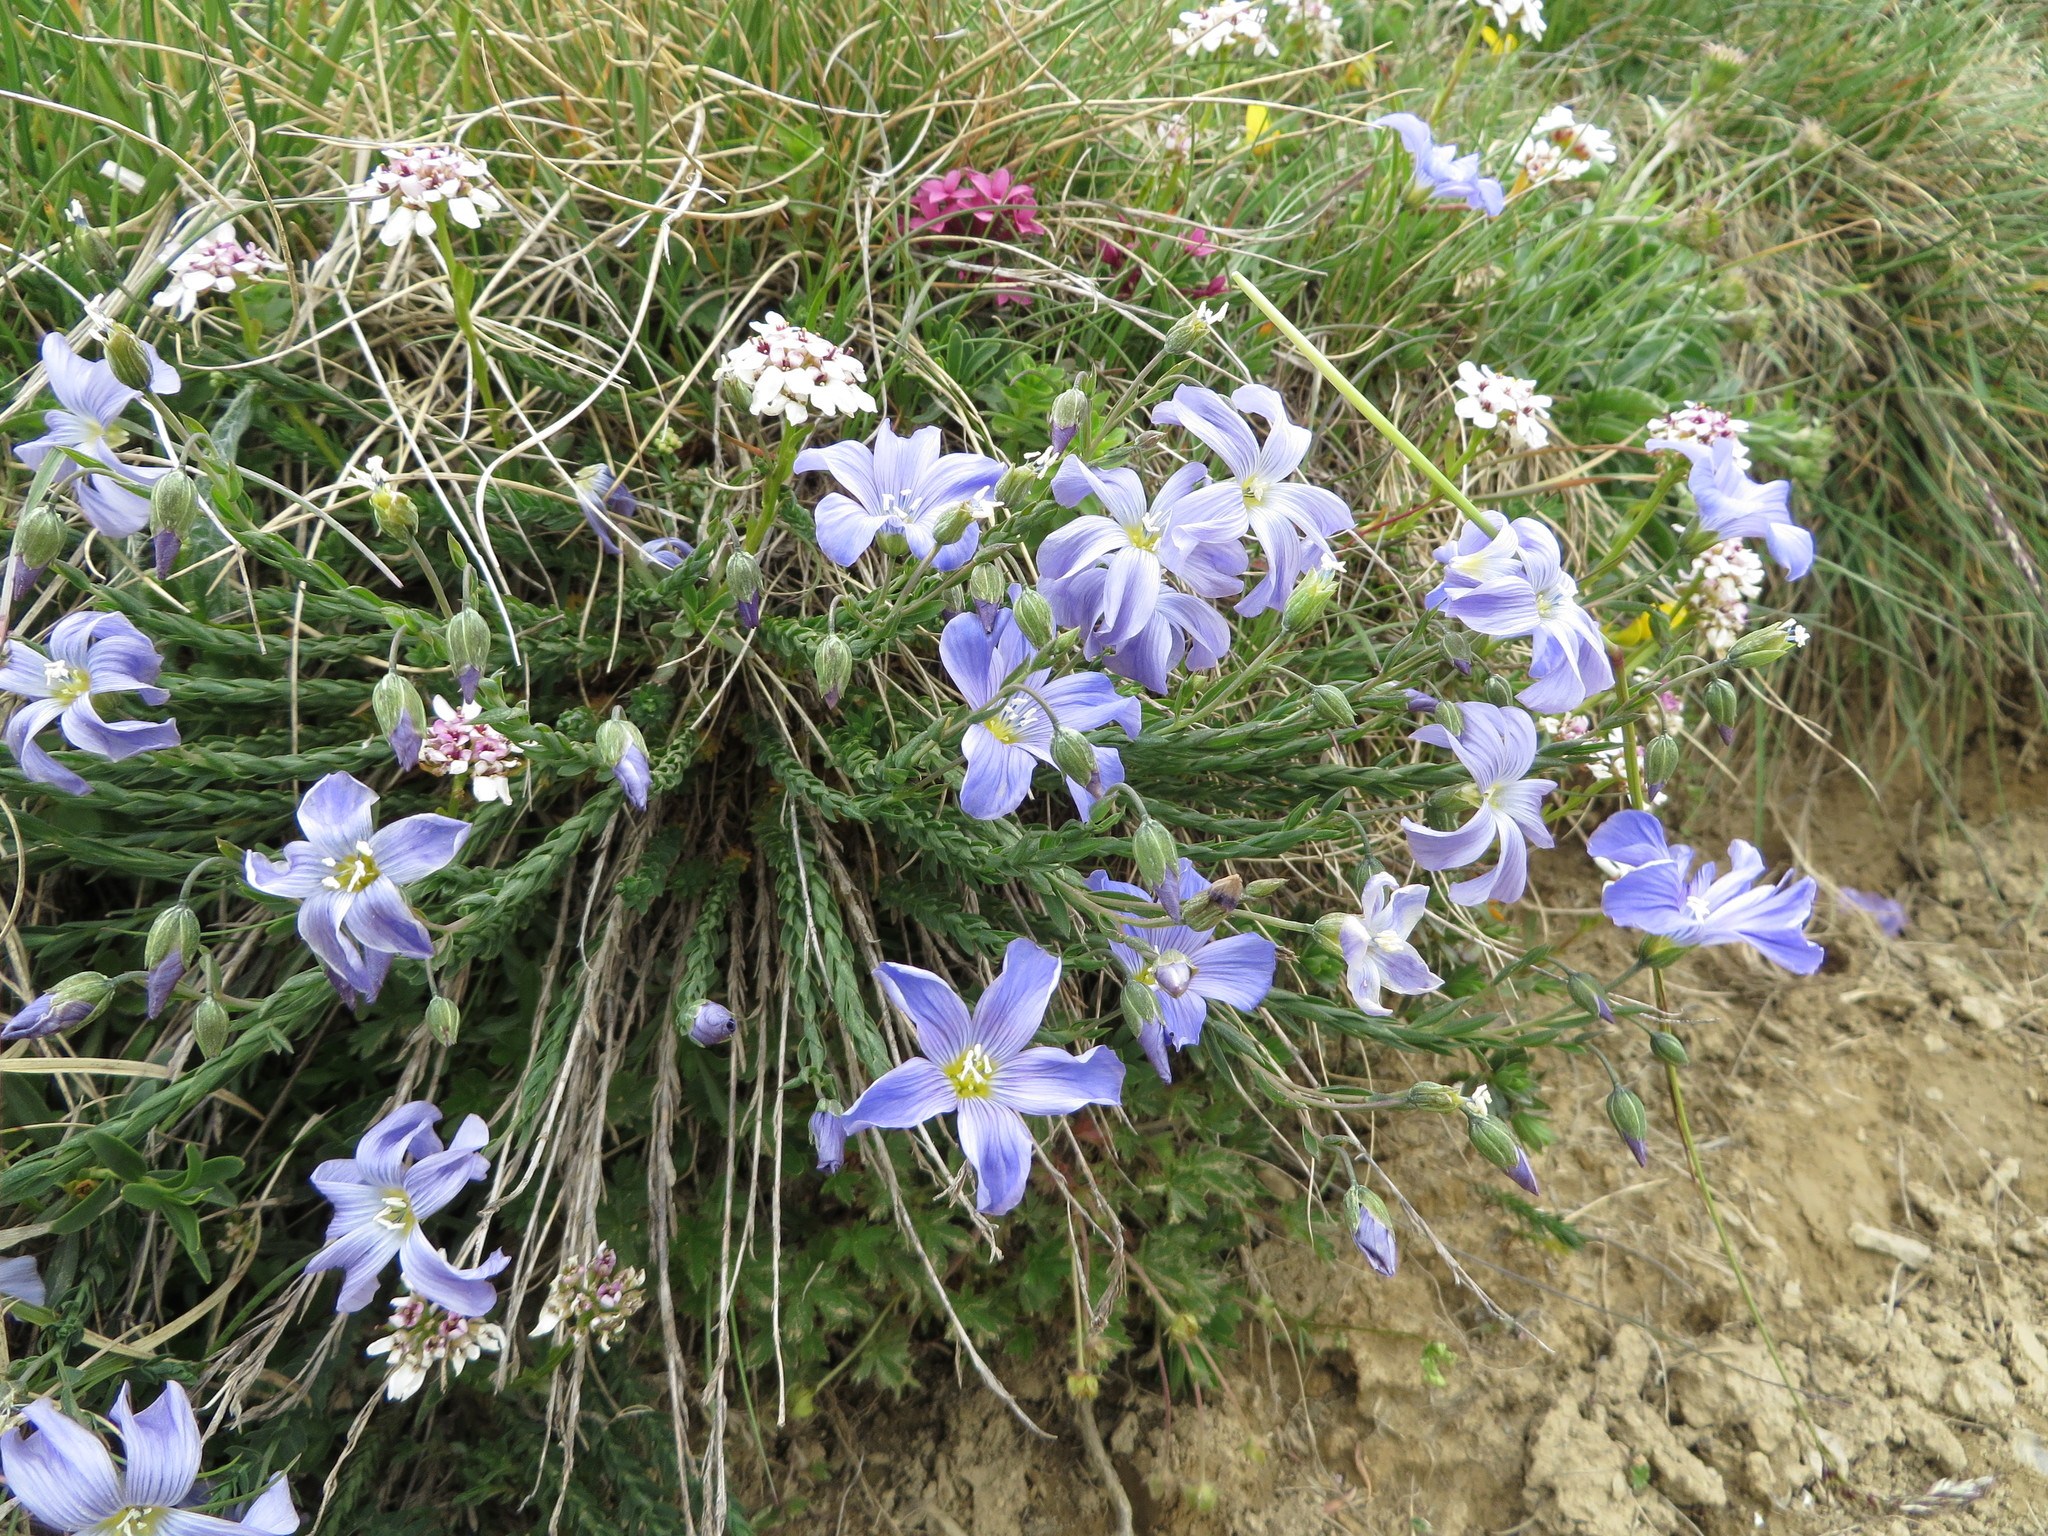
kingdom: Plantae
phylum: Tracheophyta
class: Magnoliopsida
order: Malpighiales
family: Linaceae
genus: Linum
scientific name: Linum alpinum
